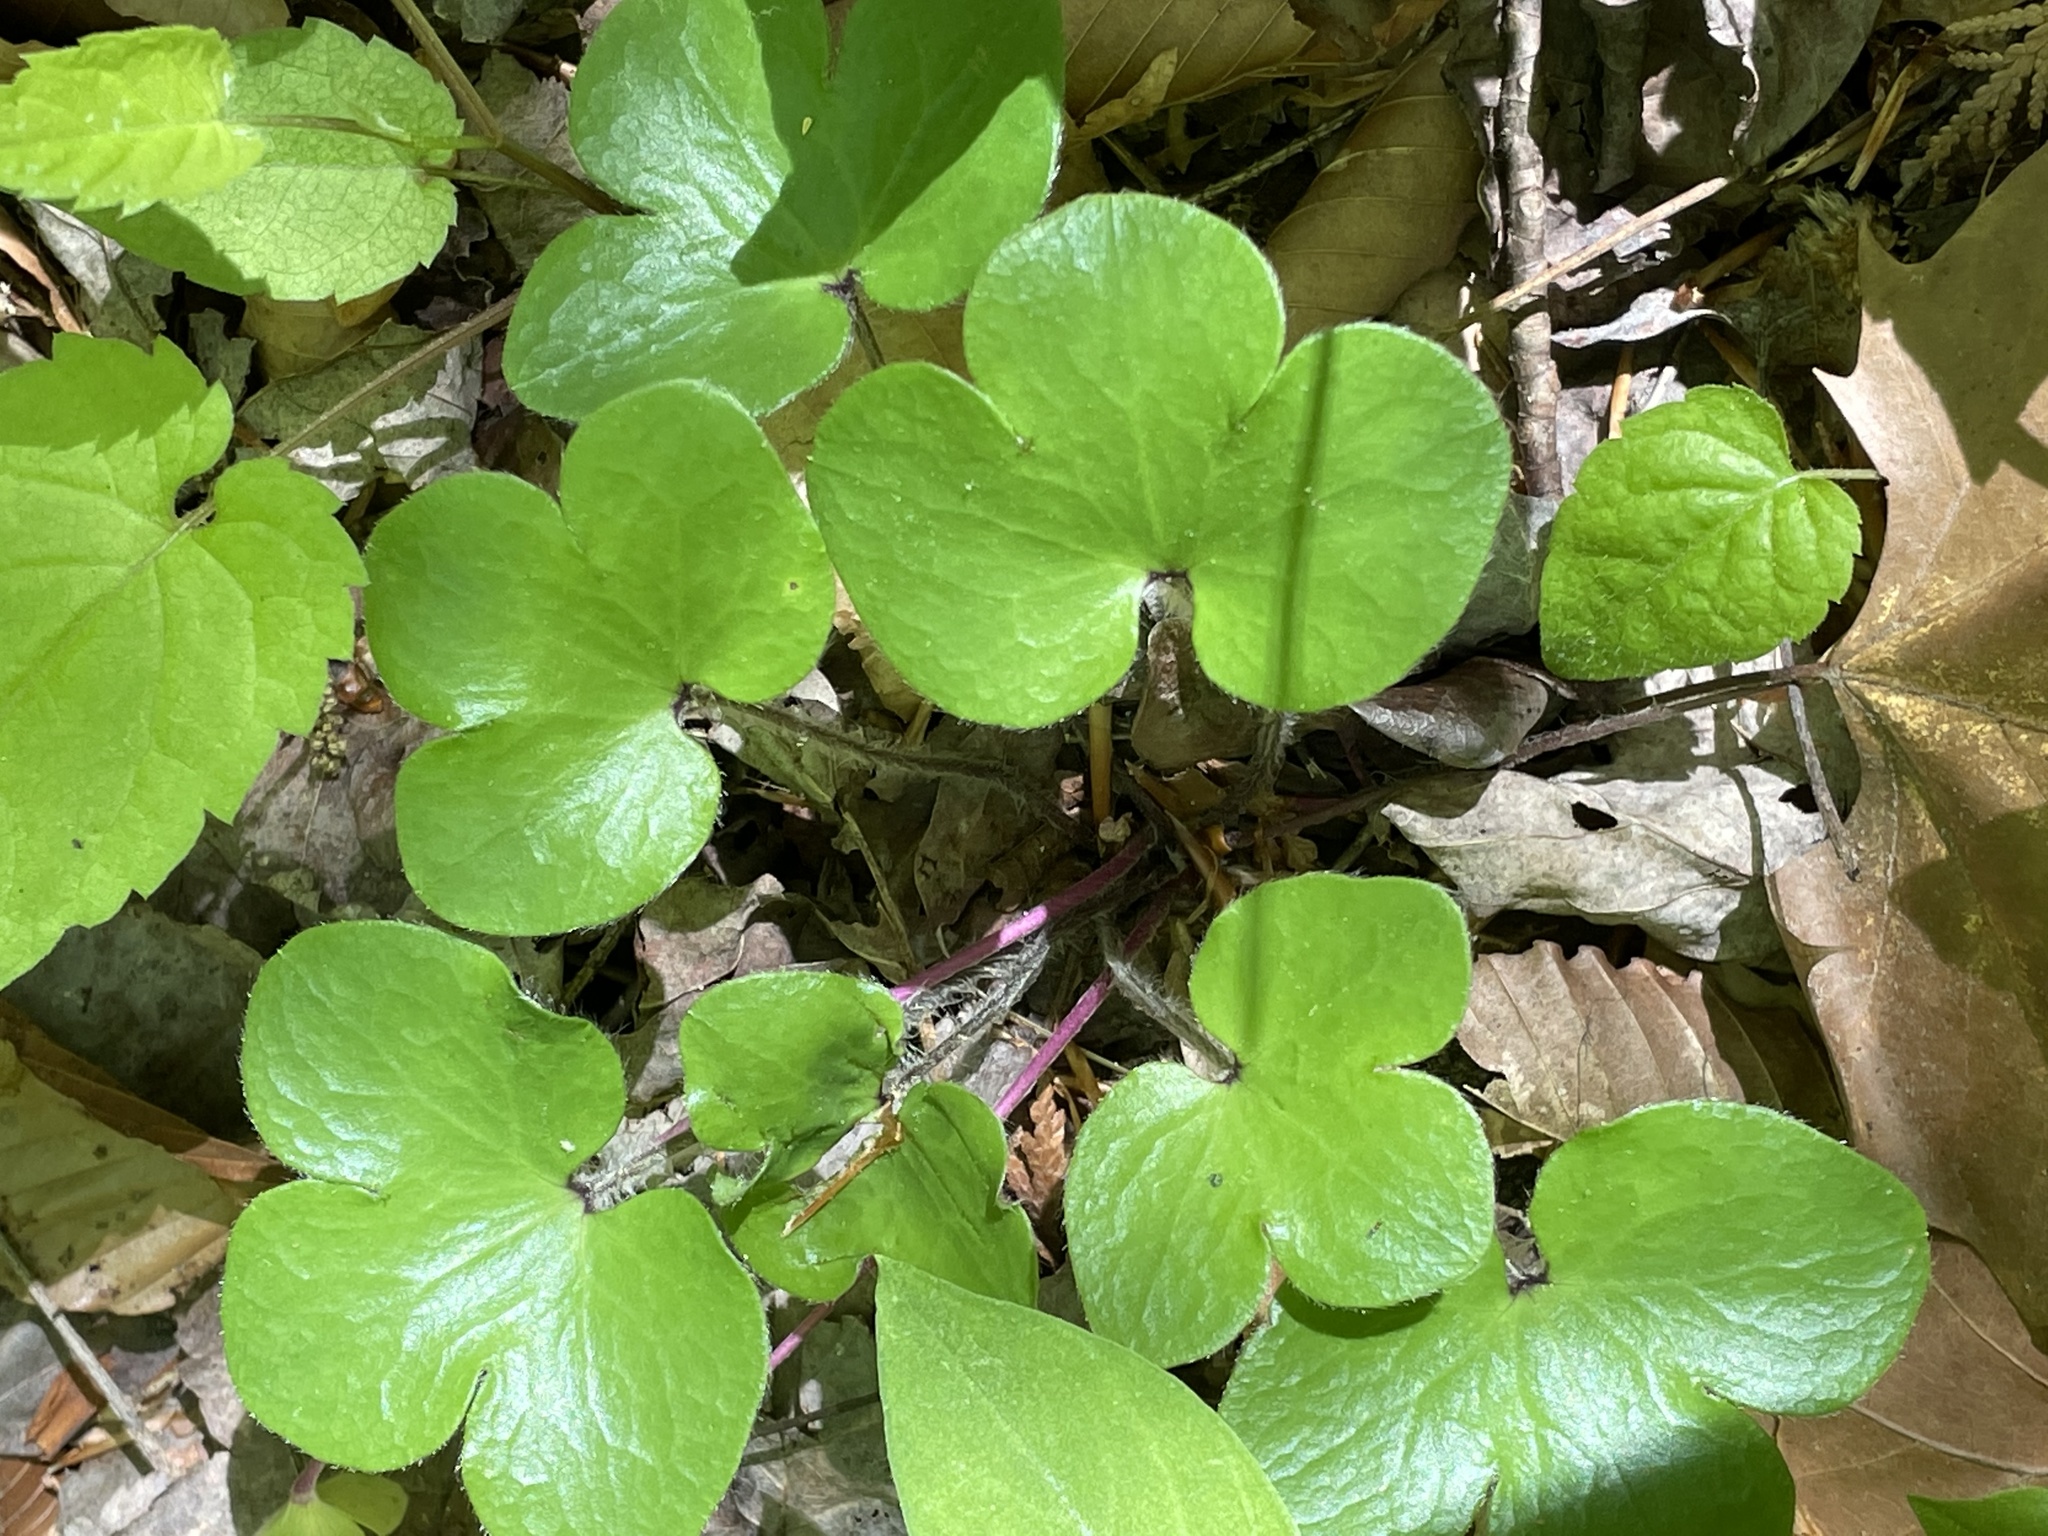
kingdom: Plantae
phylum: Tracheophyta
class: Magnoliopsida
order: Ranunculales
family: Ranunculaceae
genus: Hepatica
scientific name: Hepatica americana
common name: American hepatica
